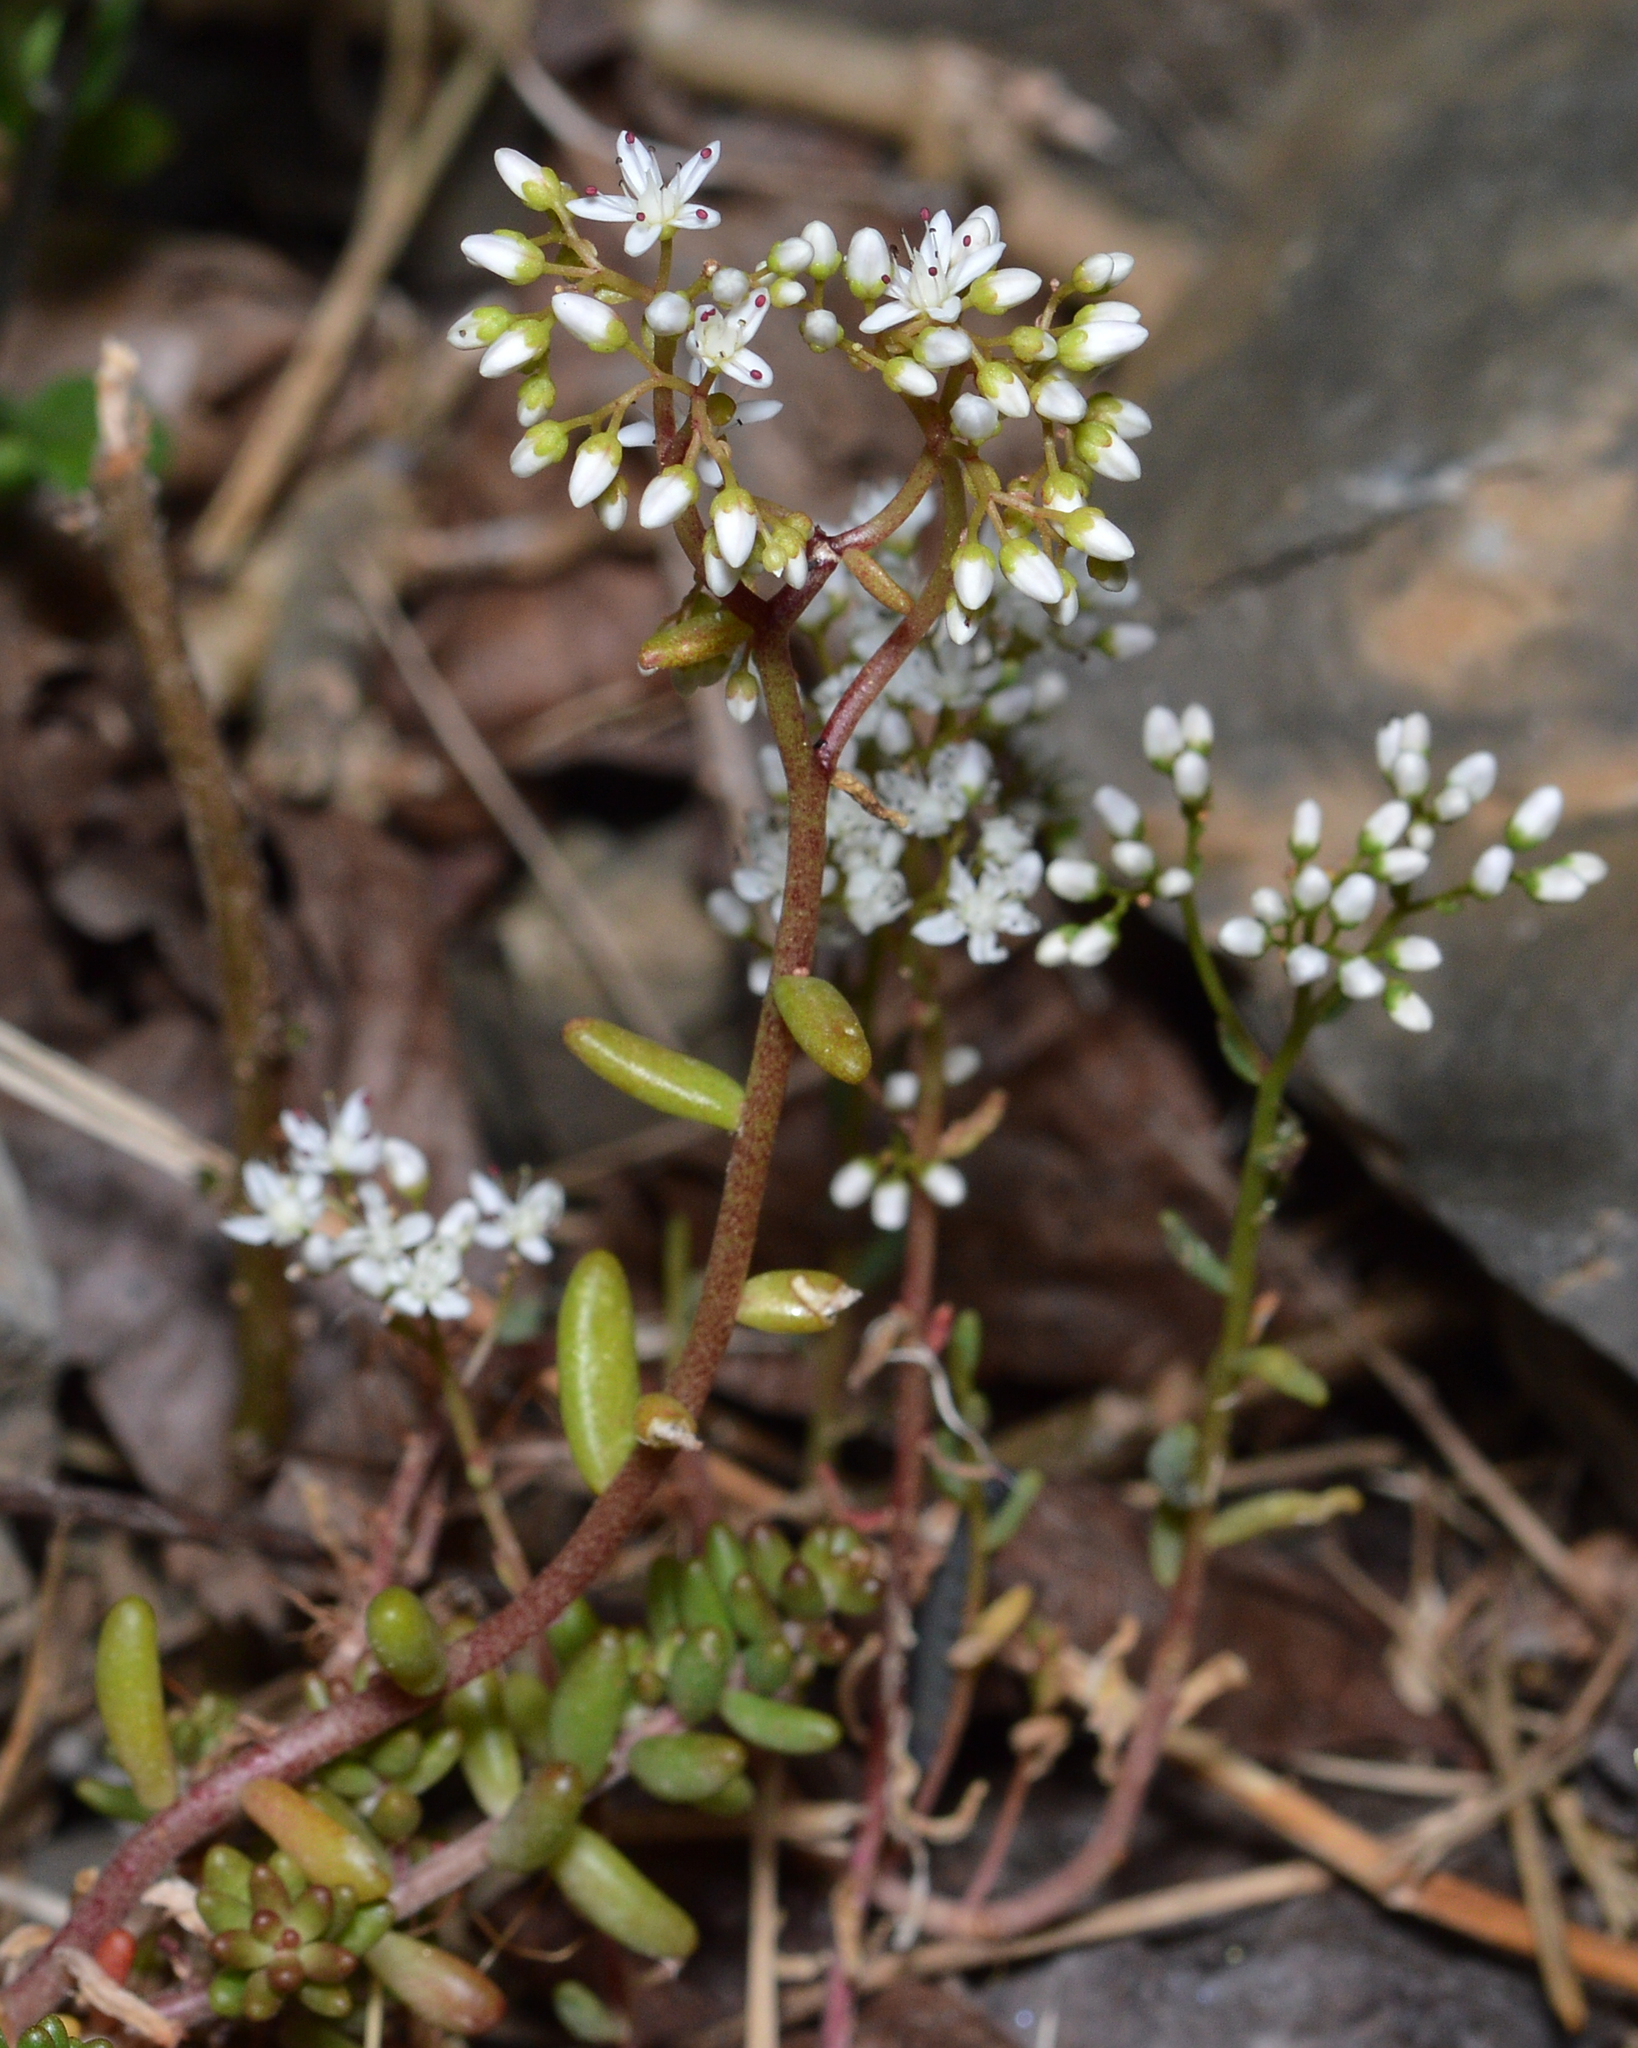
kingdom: Plantae
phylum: Tracheophyta
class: Magnoliopsida
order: Saxifragales
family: Crassulaceae
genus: Sedum
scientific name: Sedum album
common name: White stonecrop
